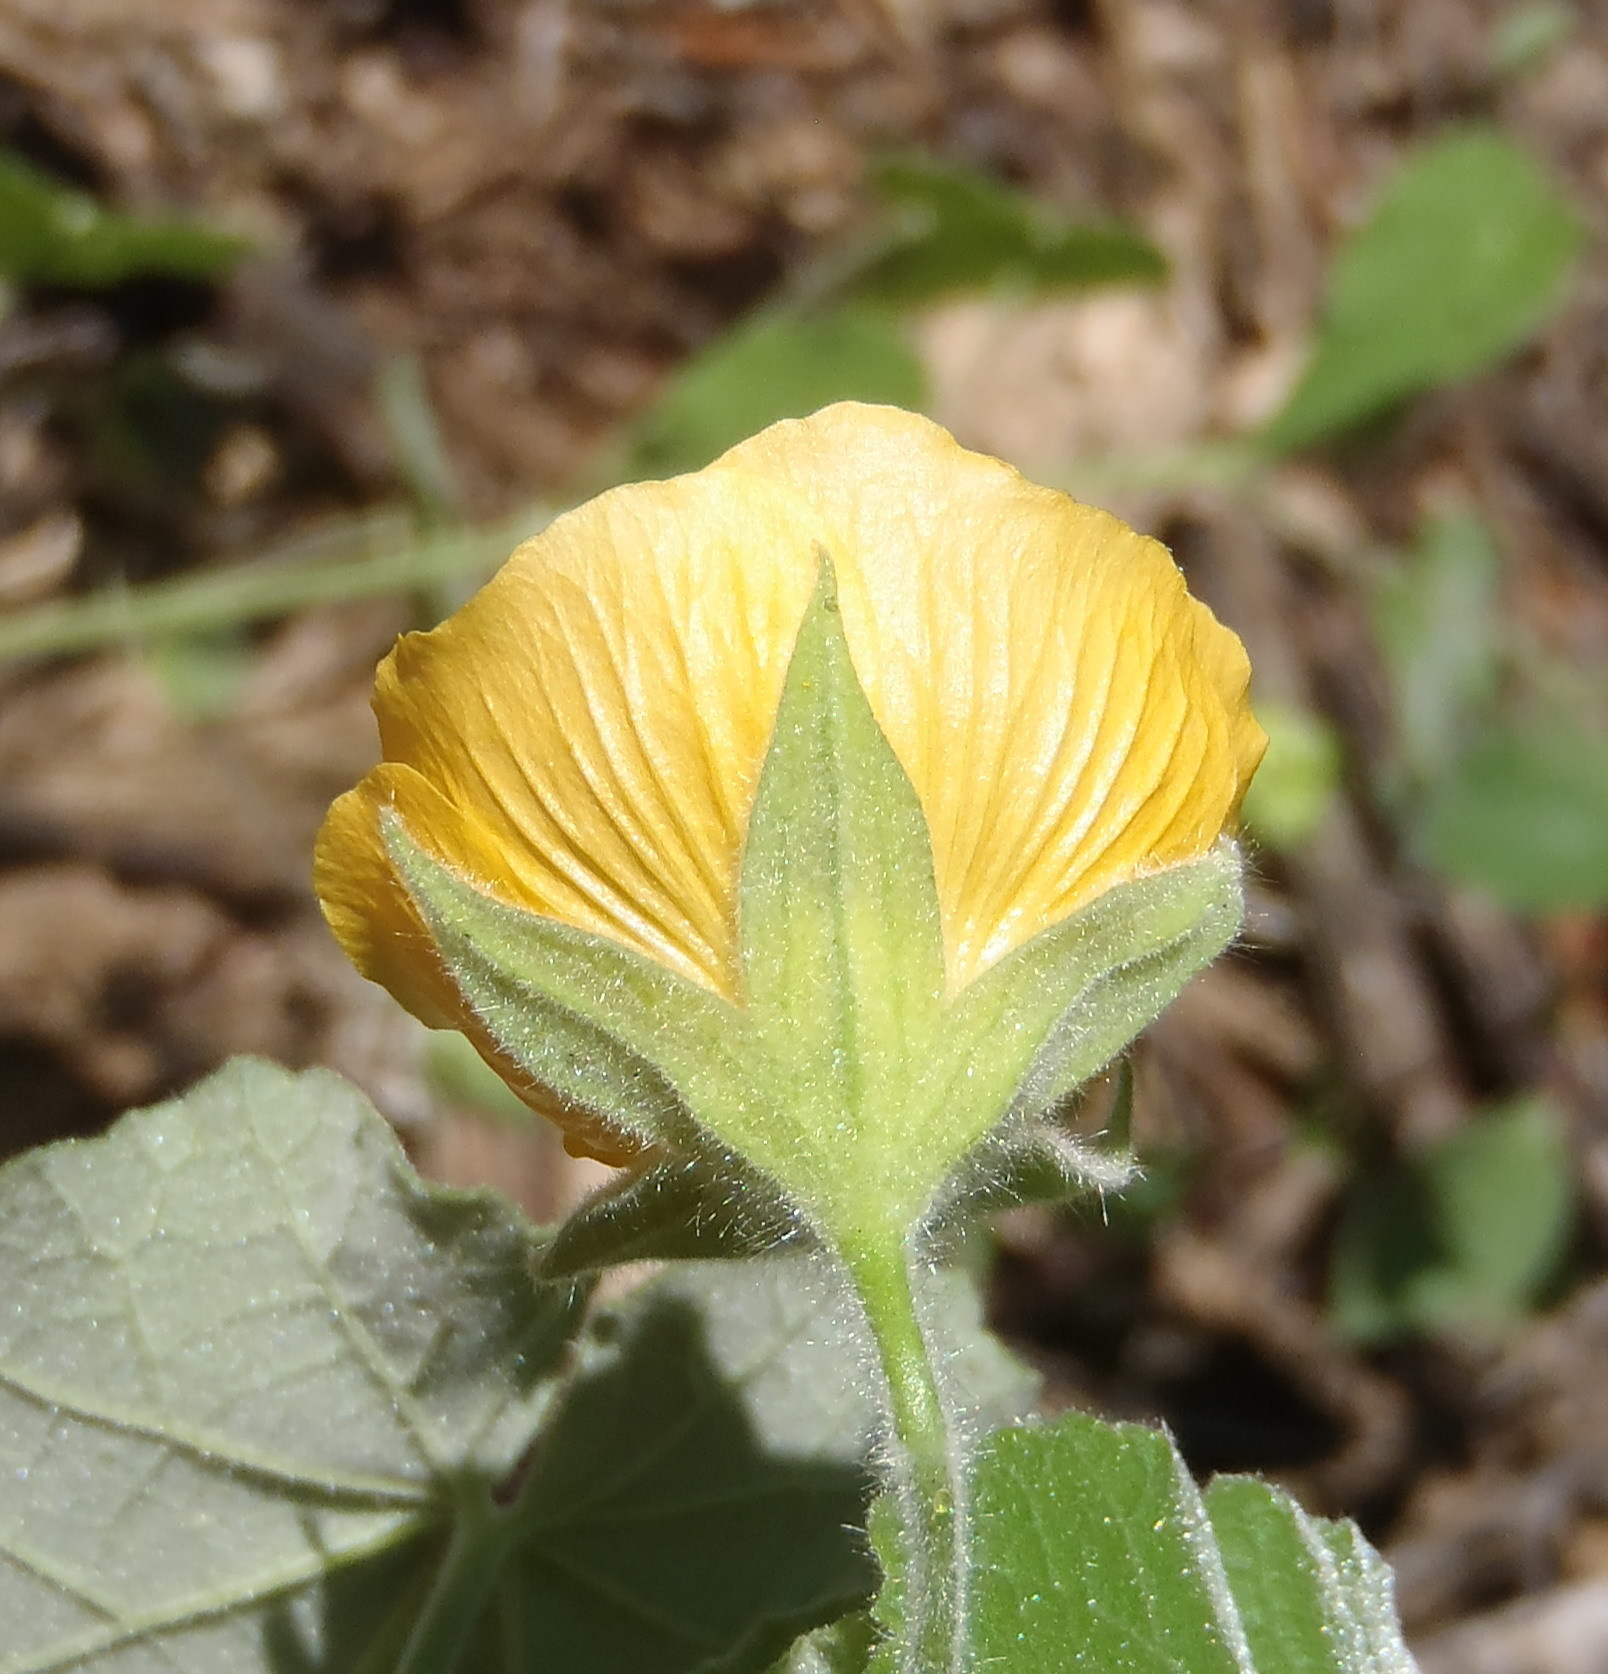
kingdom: Plantae
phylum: Tracheophyta
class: Magnoliopsida
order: Malvales
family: Malvaceae
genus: Abutilon
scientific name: Abutilon pilosocinereum
